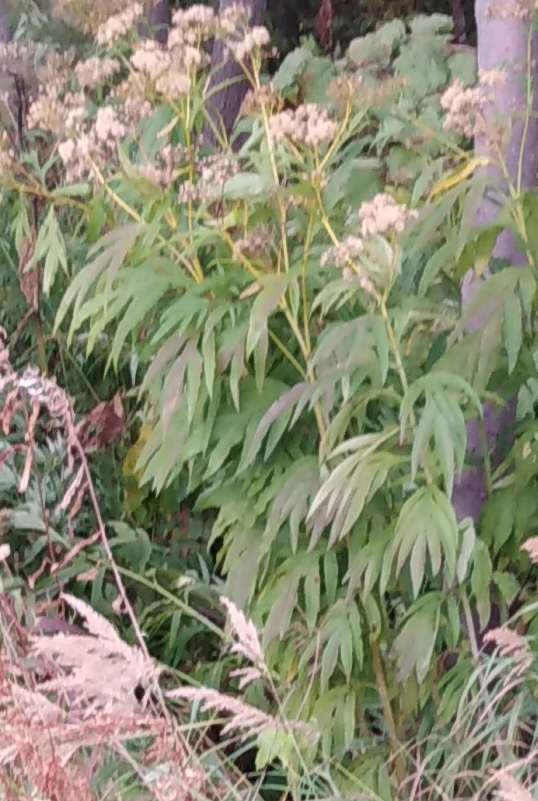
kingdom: Plantae
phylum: Tracheophyta
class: Magnoliopsida
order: Asterales
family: Asteraceae
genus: Jacobaea
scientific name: Jacobaea cannabifolia
